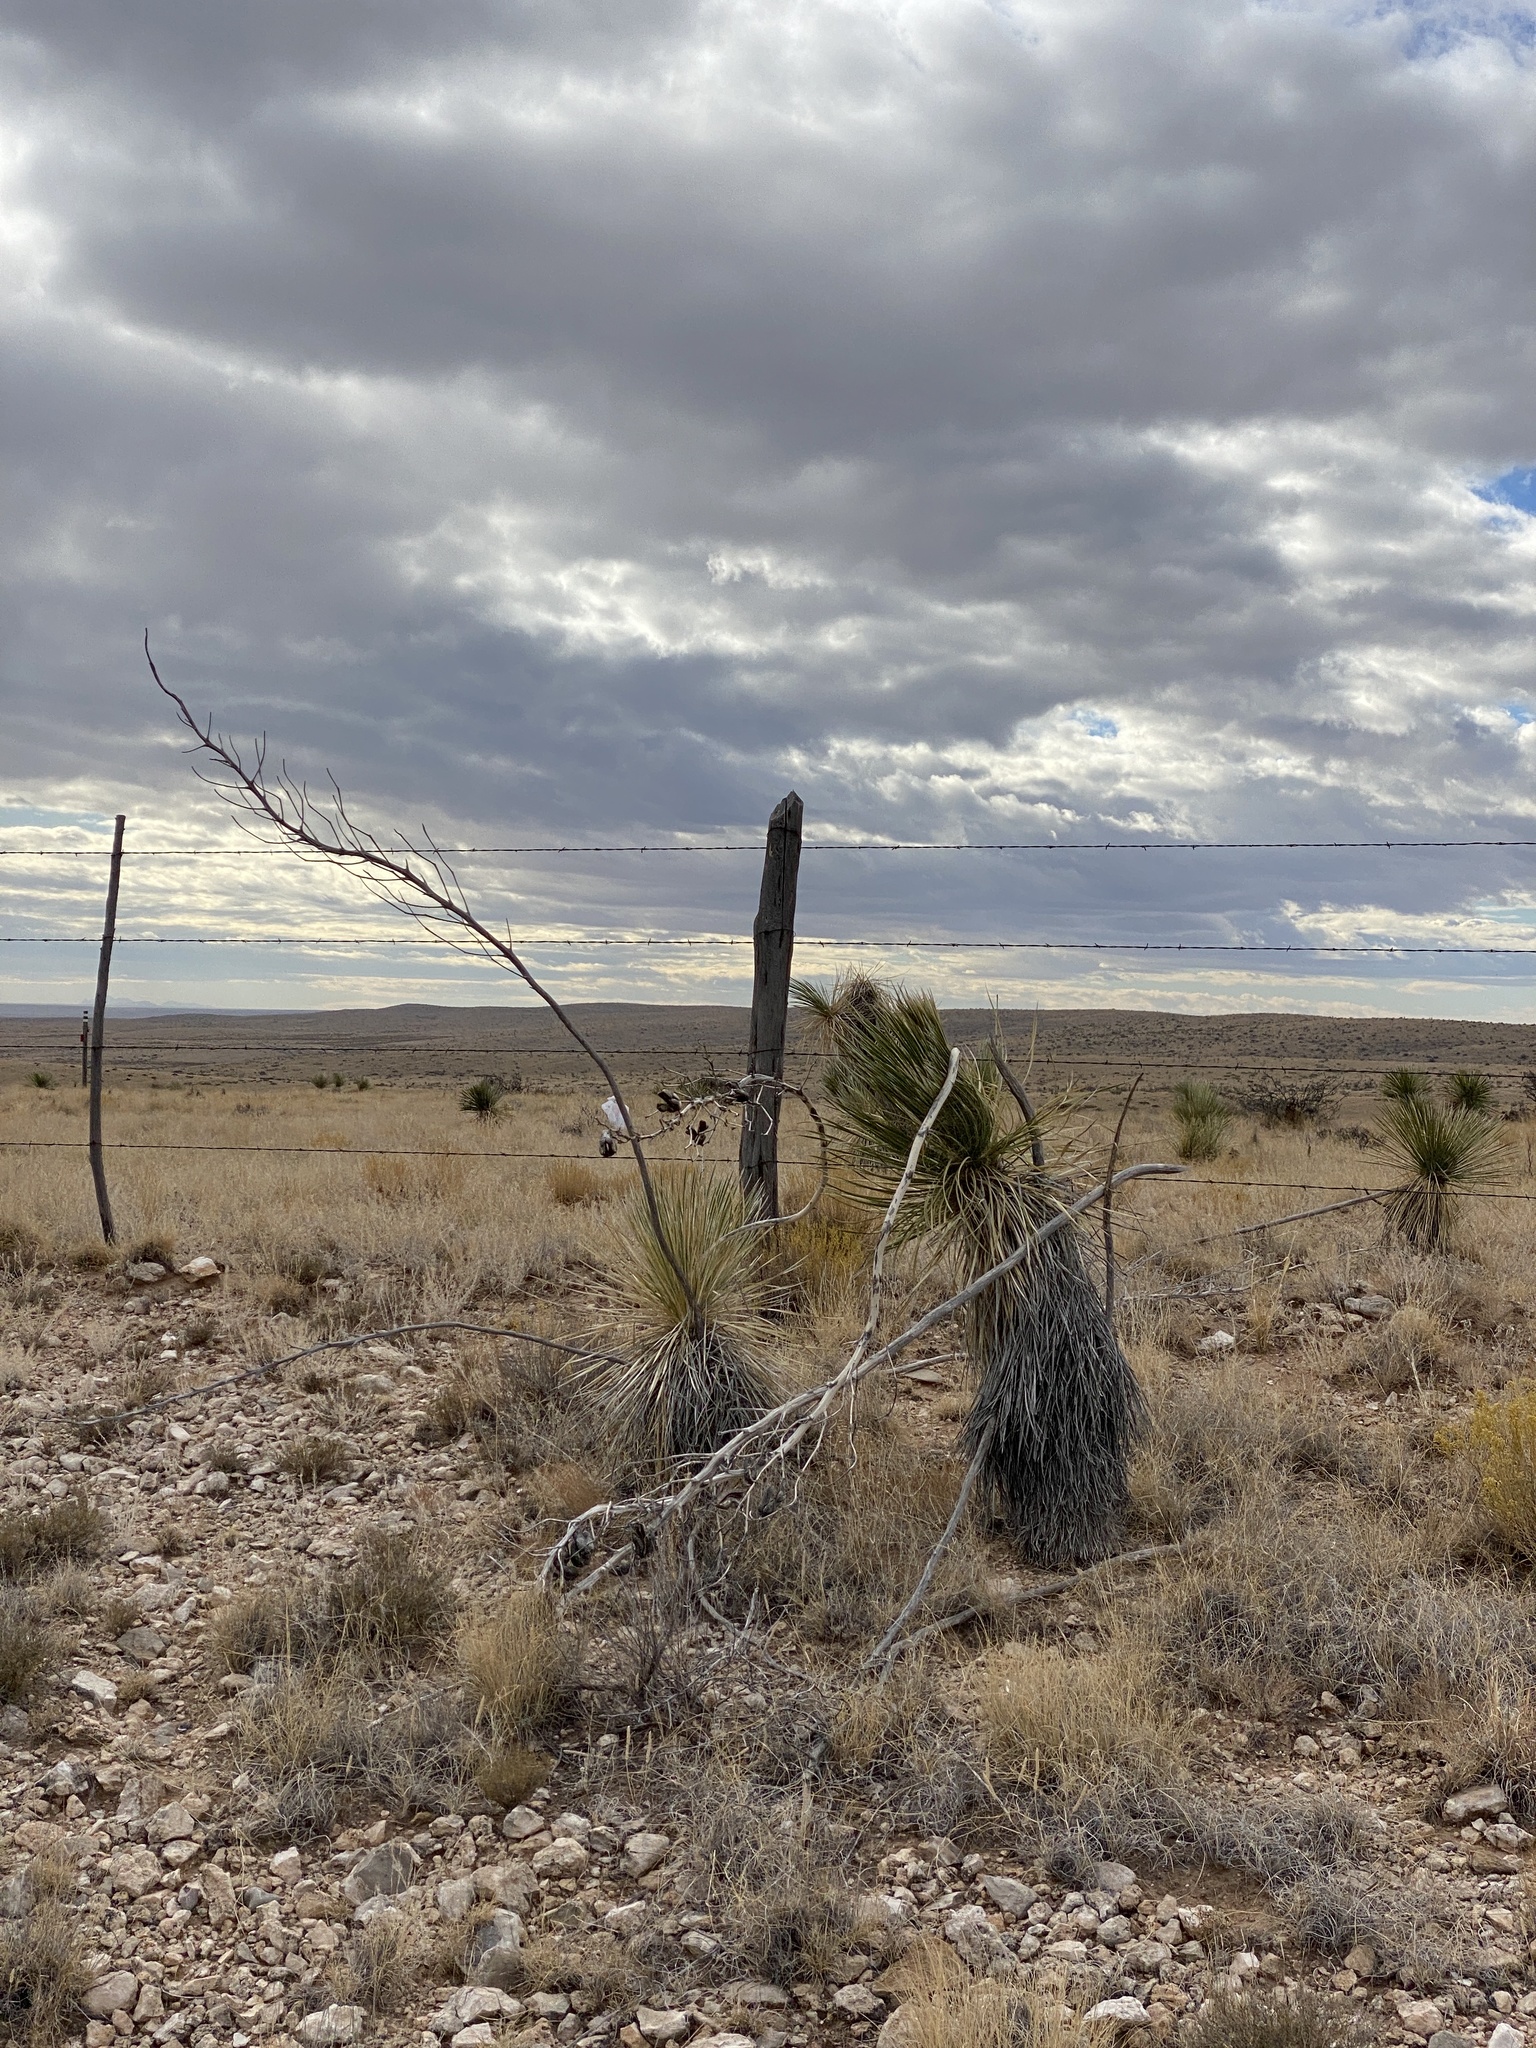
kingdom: Plantae
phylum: Tracheophyta
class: Liliopsida
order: Asparagales
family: Asparagaceae
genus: Yucca
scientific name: Yucca elata
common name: Palmella
